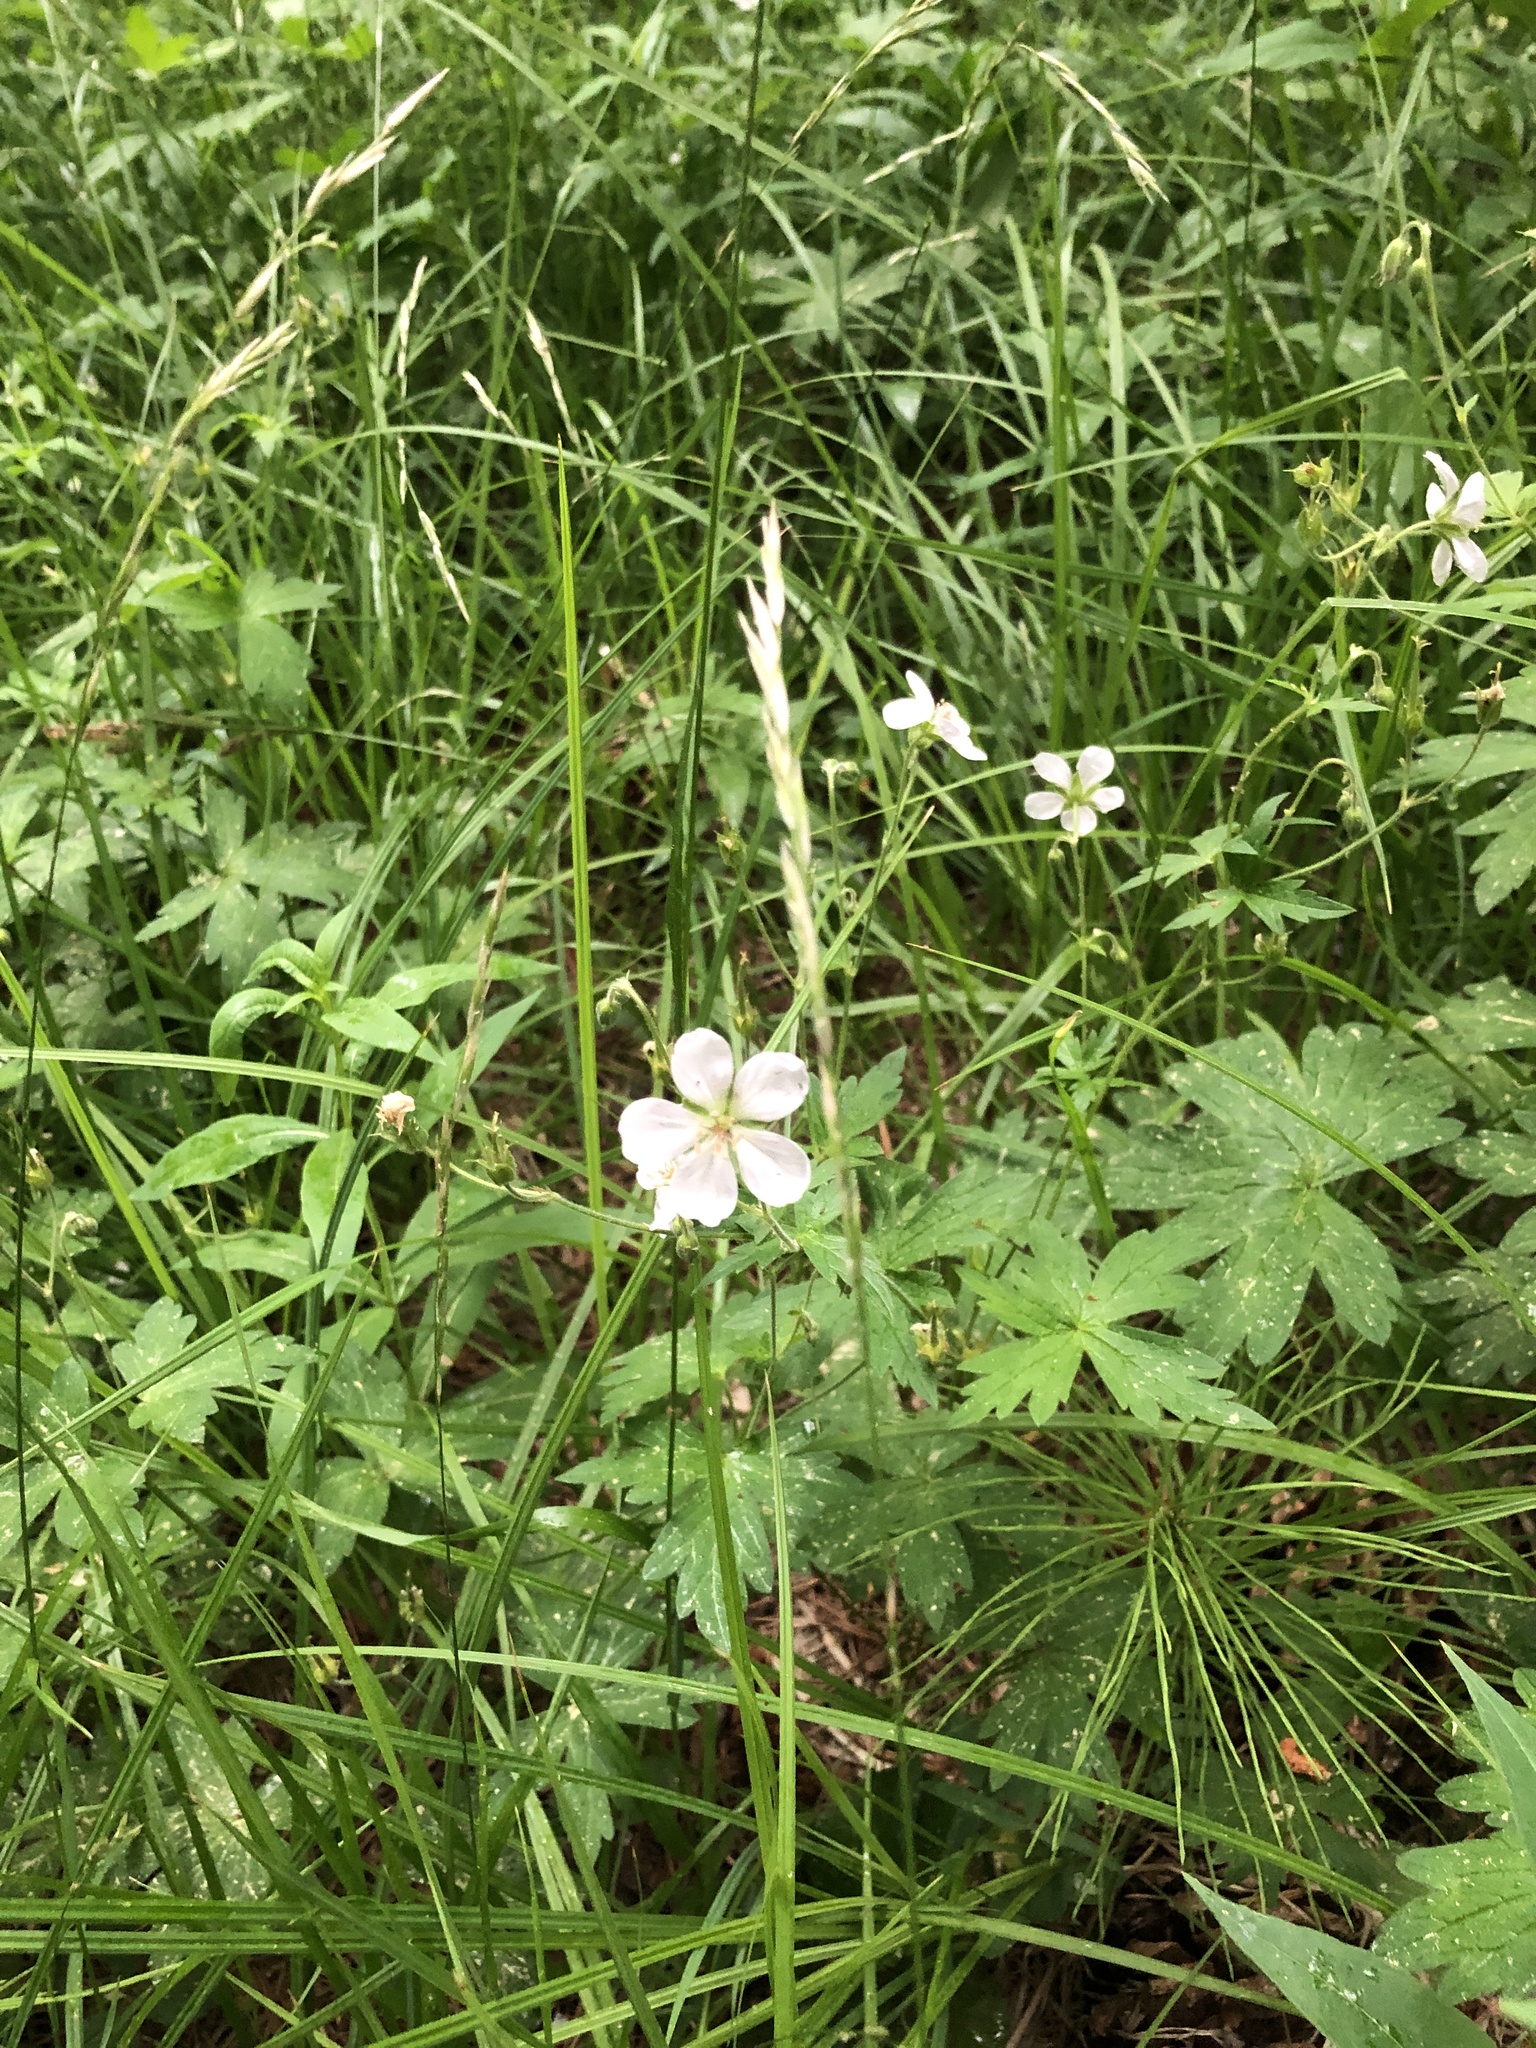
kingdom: Plantae
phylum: Tracheophyta
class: Magnoliopsida
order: Geraniales
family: Geraniaceae
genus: Geranium
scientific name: Geranium richardsonii
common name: Richardson's crane's-bill
